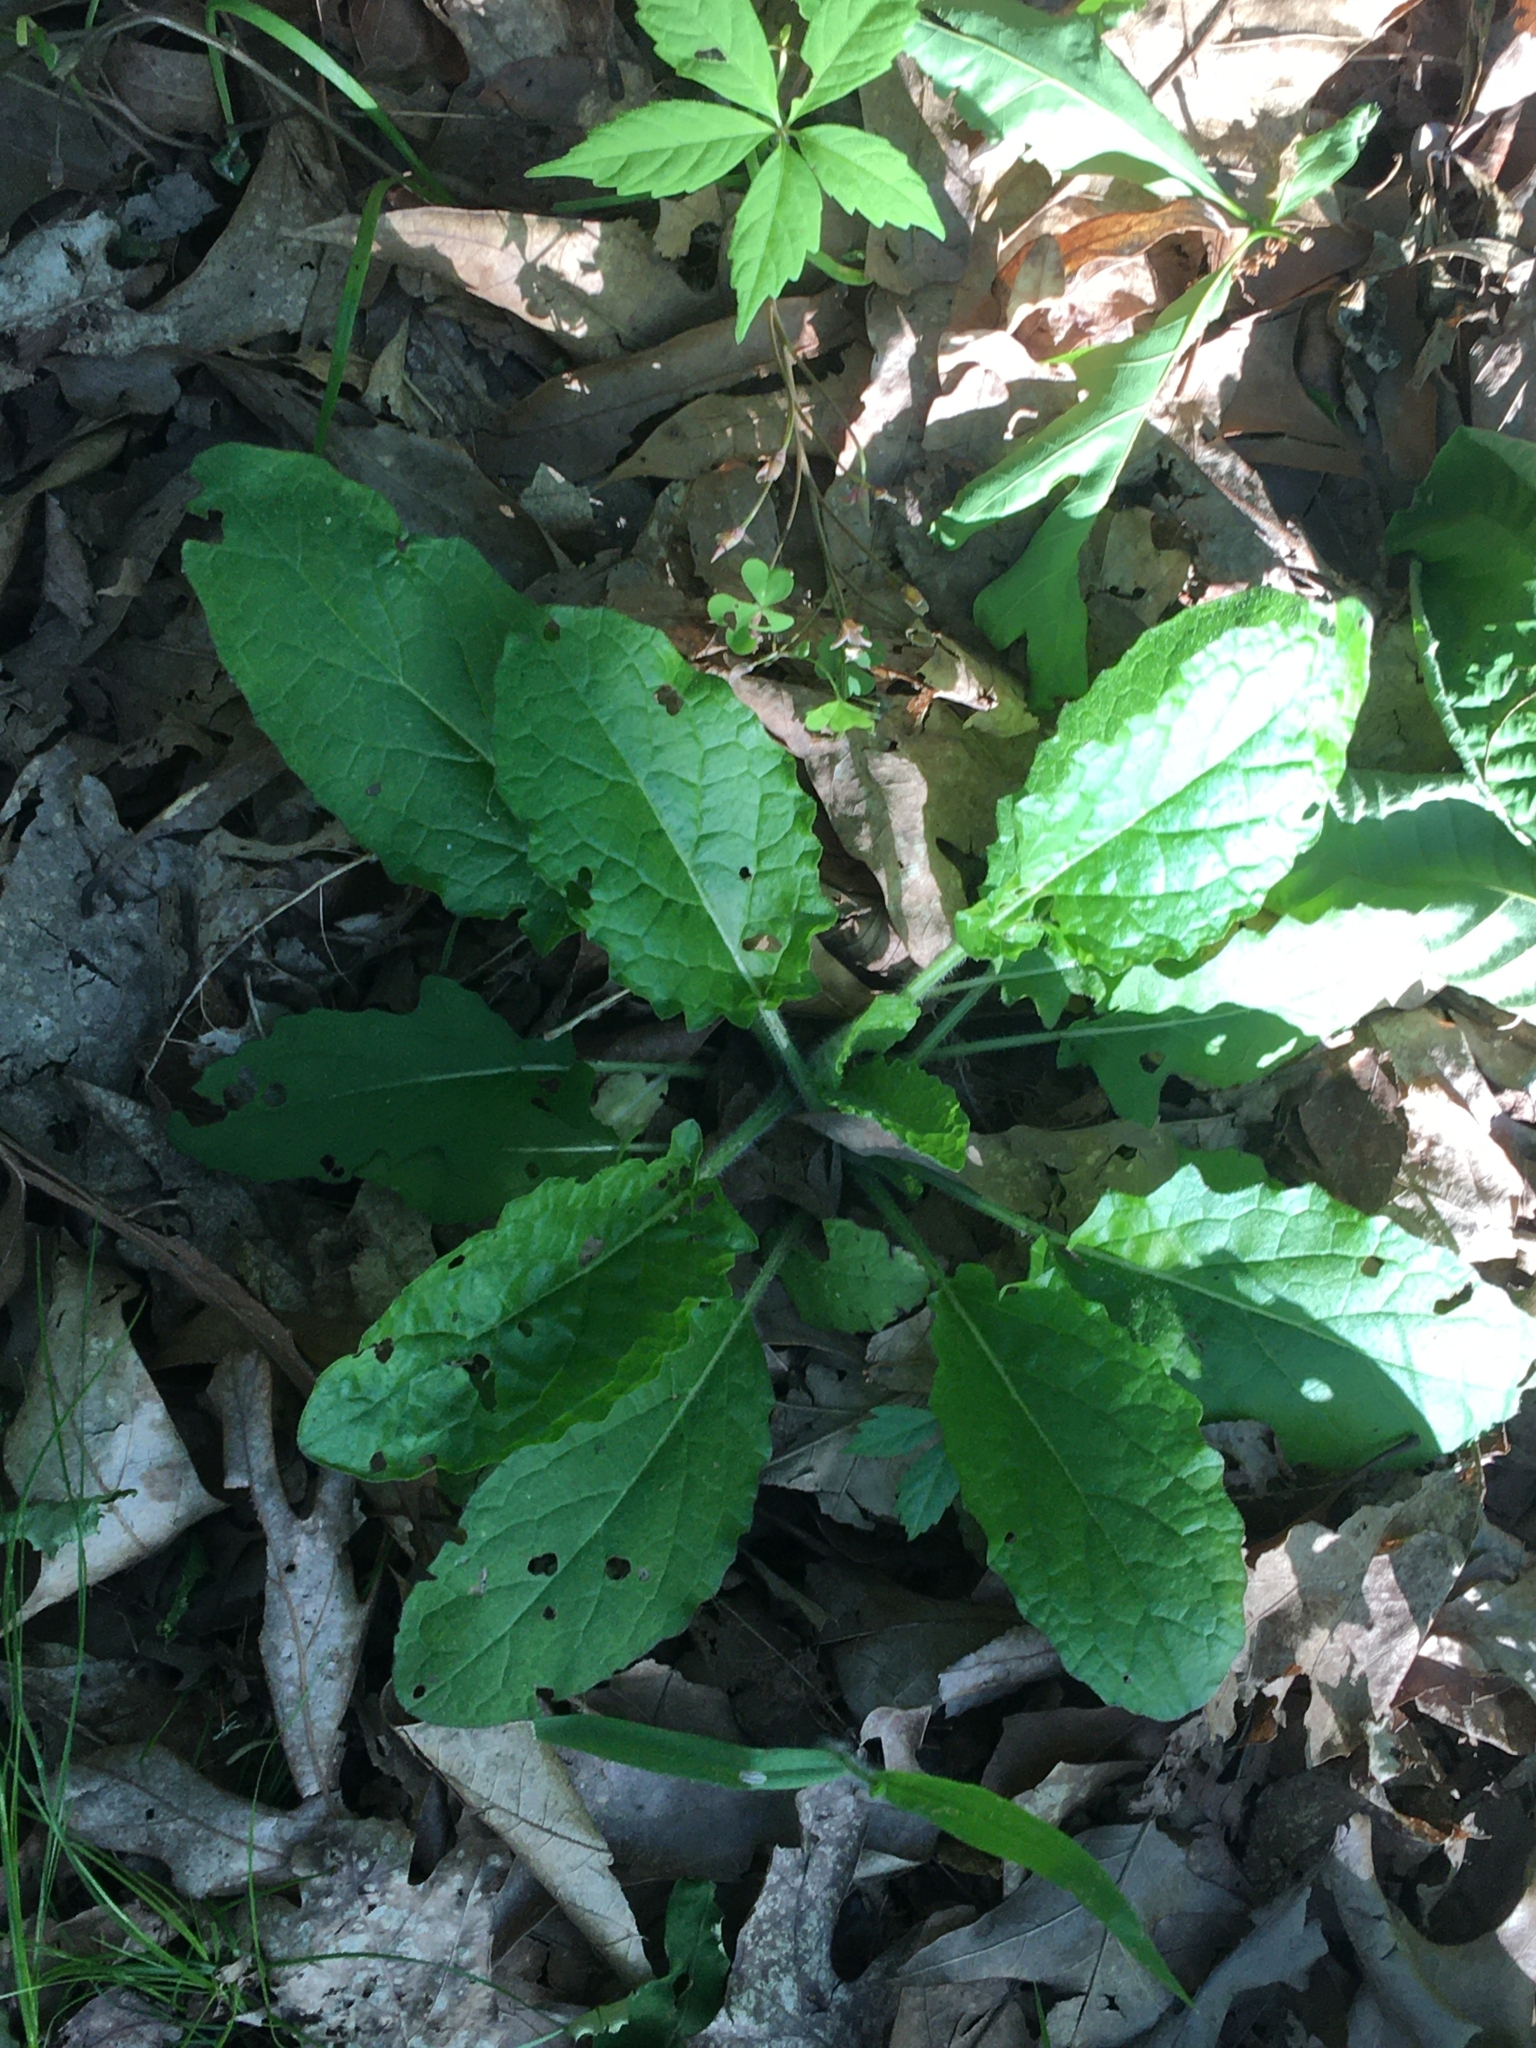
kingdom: Plantae
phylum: Tracheophyta
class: Magnoliopsida
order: Lamiales
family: Lamiaceae
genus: Salvia
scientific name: Salvia lyrata
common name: Cancerweed
